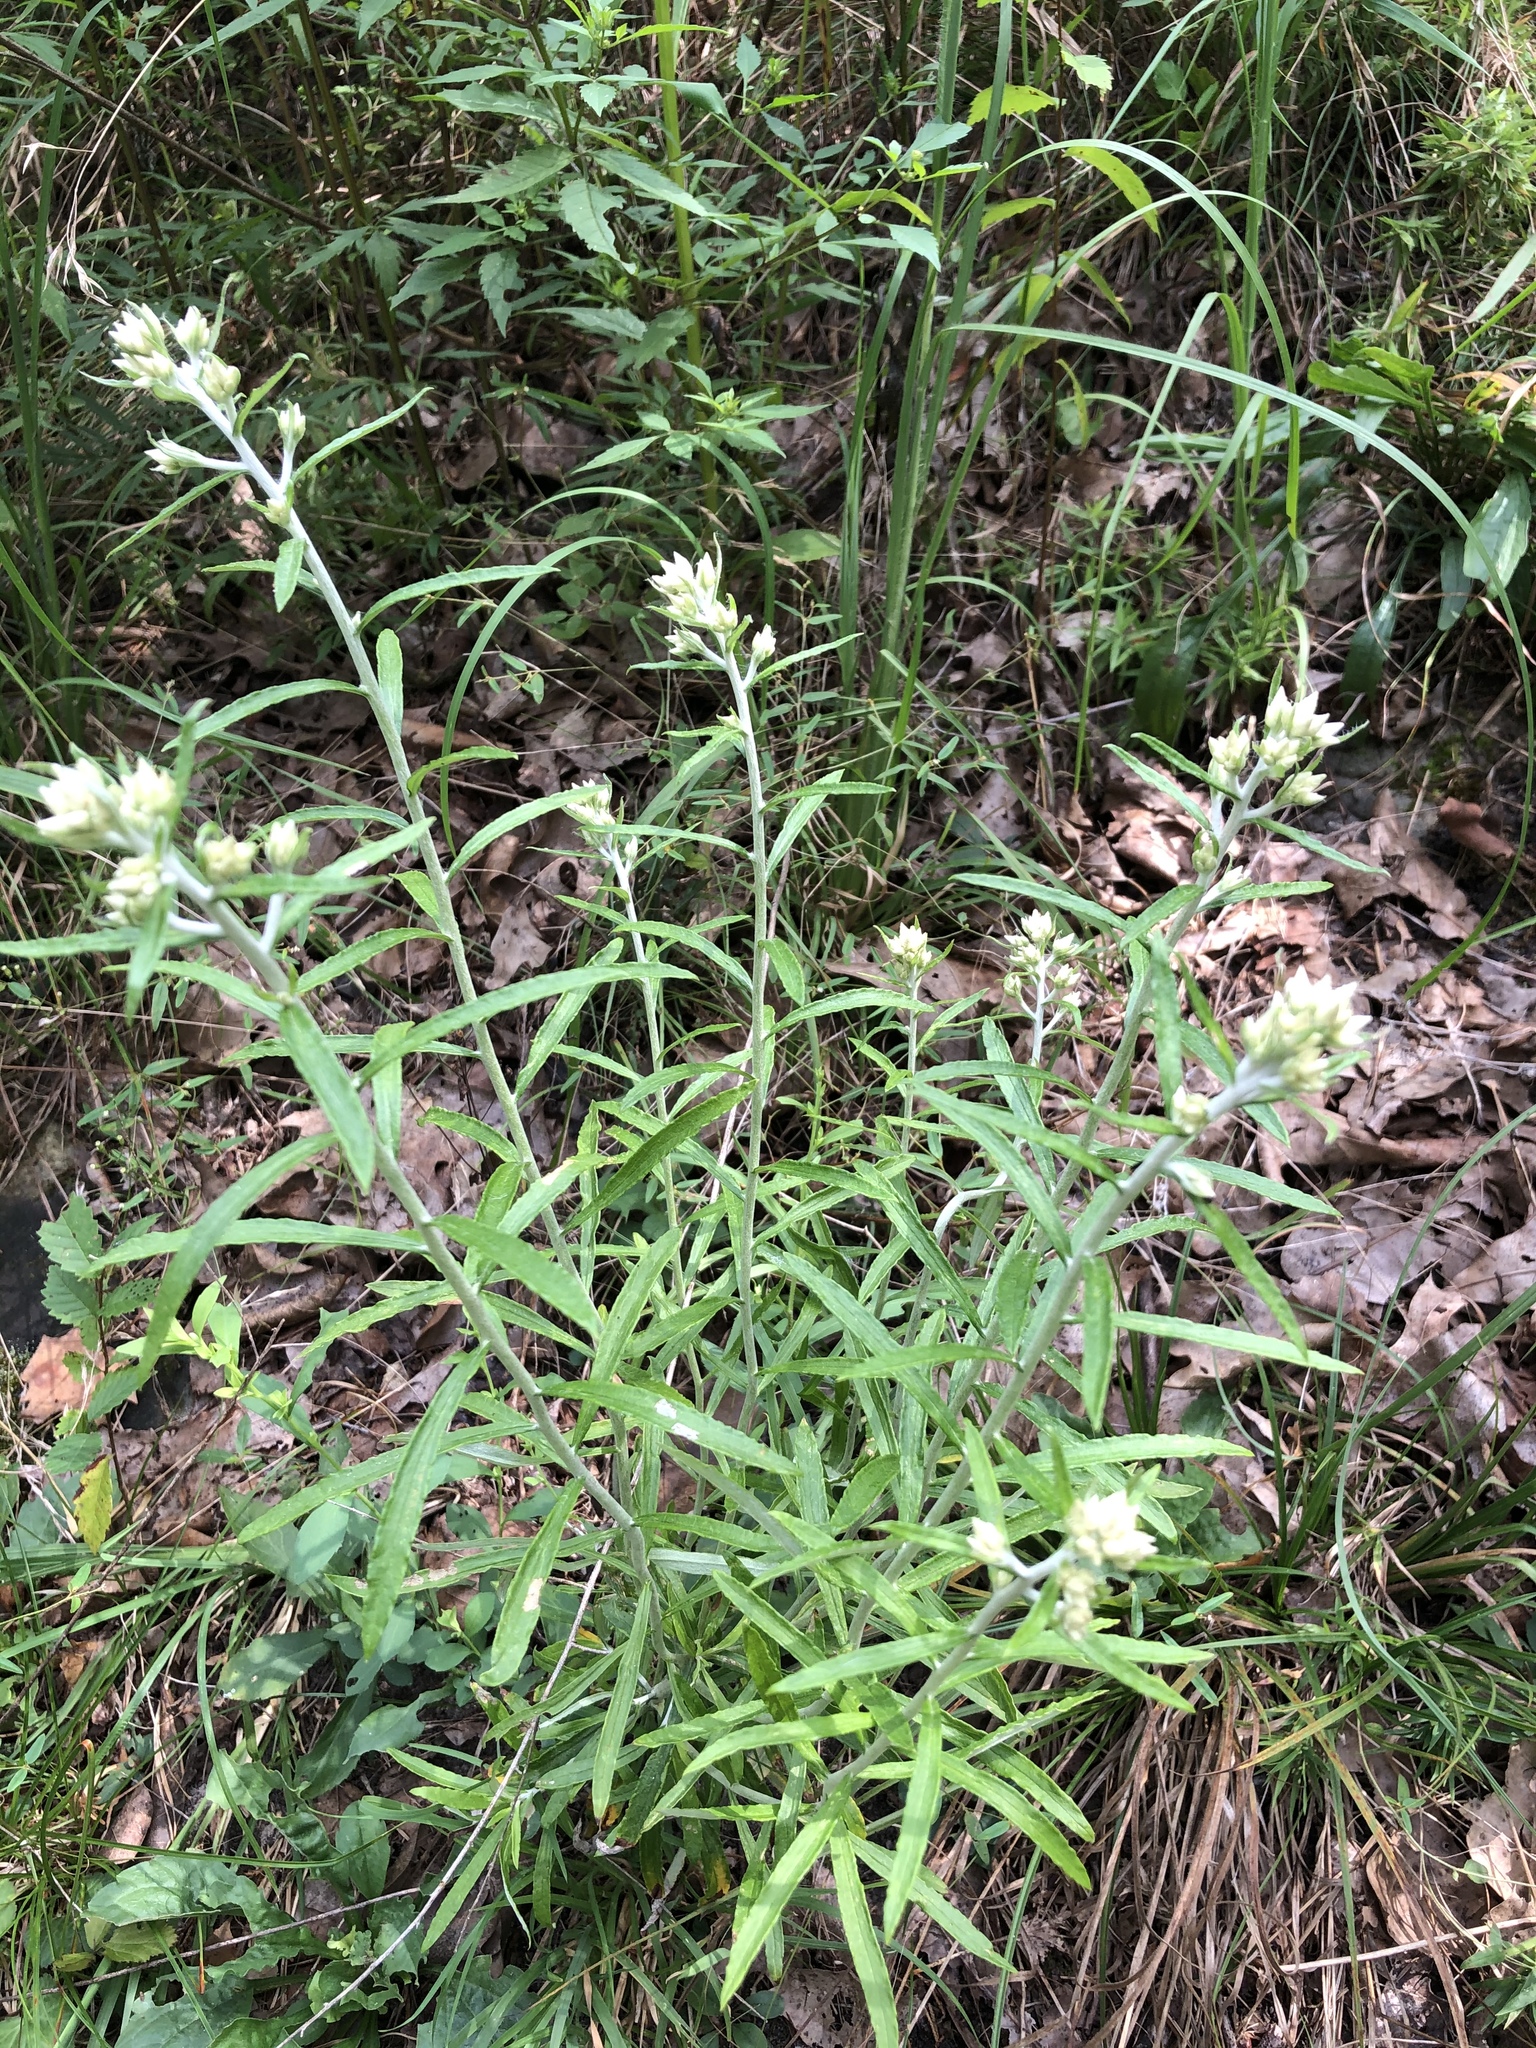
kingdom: Plantae
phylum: Tracheophyta
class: Magnoliopsida
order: Asterales
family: Asteraceae
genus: Pseudognaphalium
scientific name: Pseudognaphalium obtusifolium
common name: Eastern rabbit-tobacco
